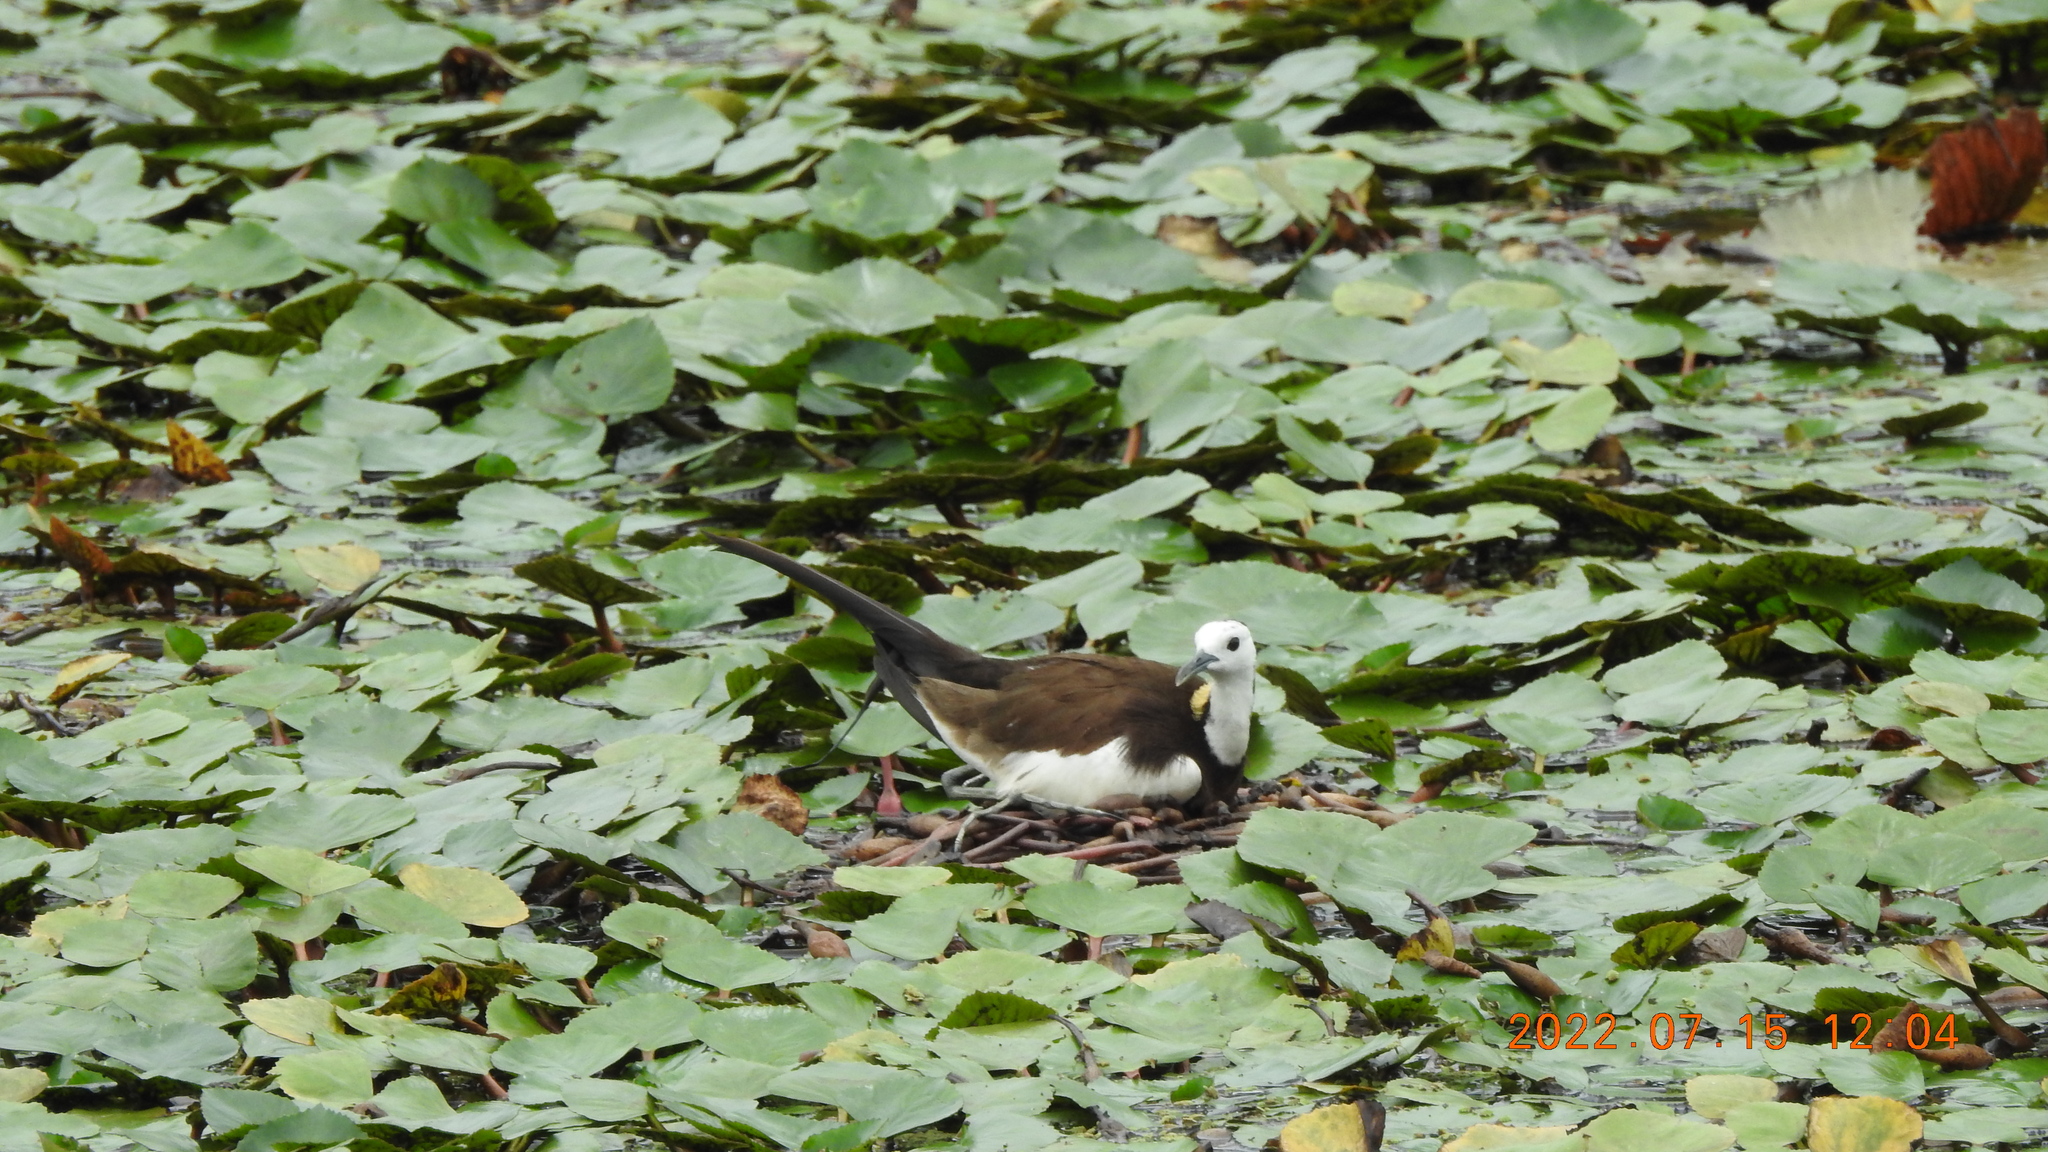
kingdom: Animalia
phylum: Chordata
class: Aves
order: Charadriiformes
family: Jacanidae
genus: Hydrophasianus
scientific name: Hydrophasianus chirurgus
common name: Pheasant-tailed jacana
